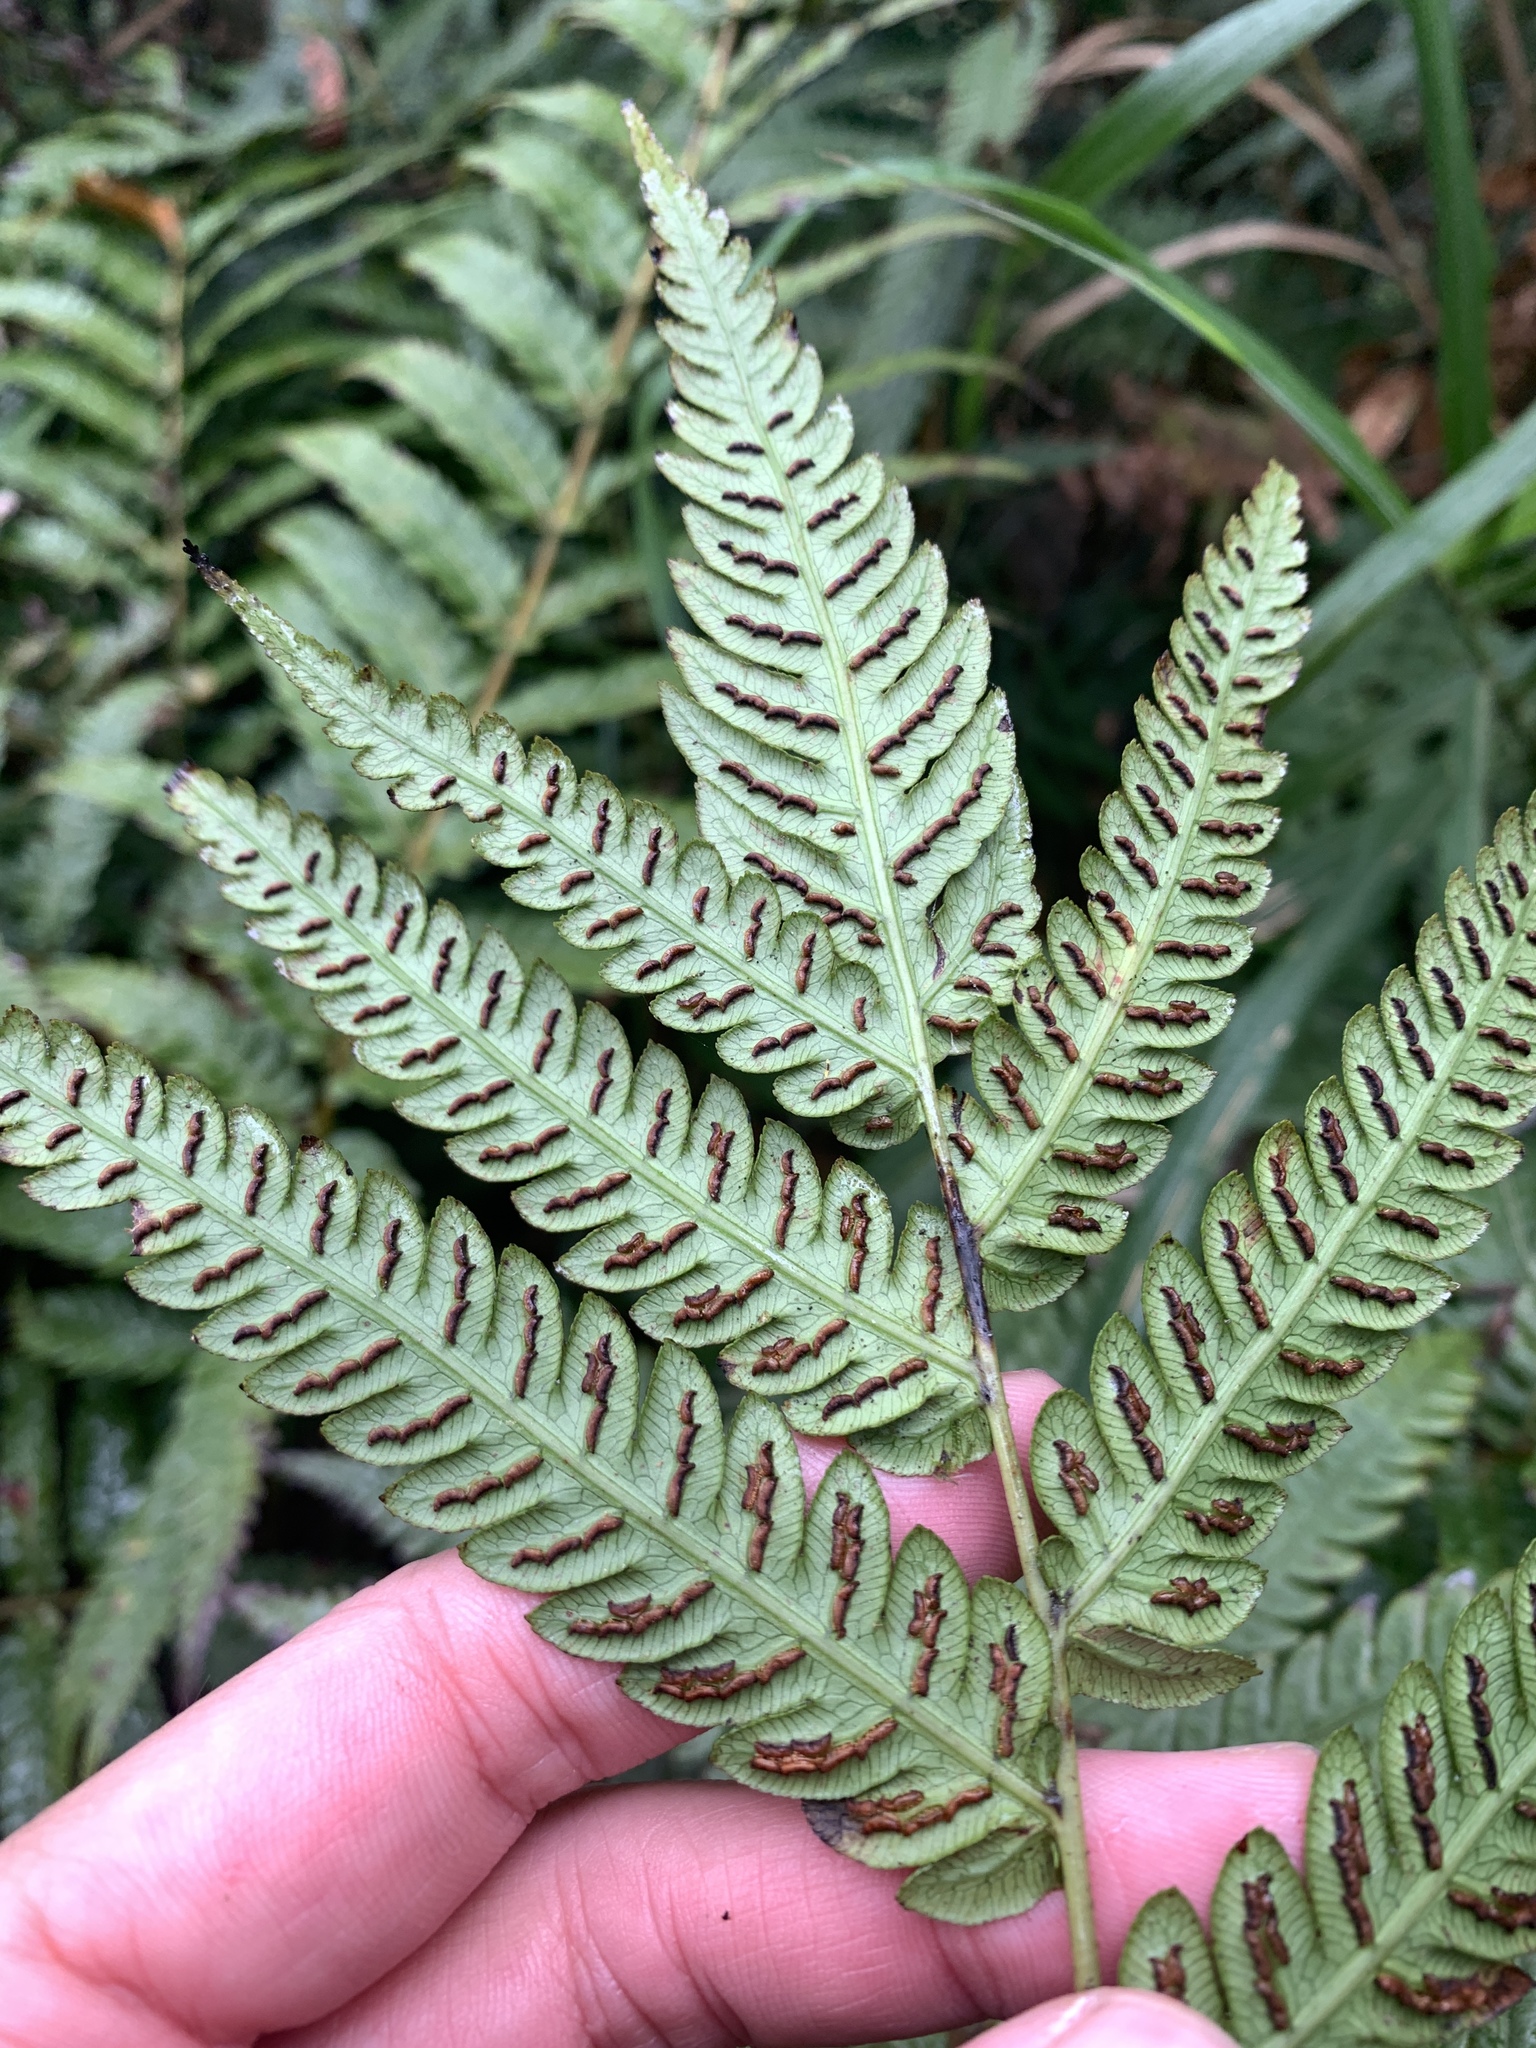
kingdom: Plantae
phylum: Tracheophyta
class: Polypodiopsida
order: Polypodiales
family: Blechnaceae
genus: Woodwardia
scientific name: Woodwardia japonica
